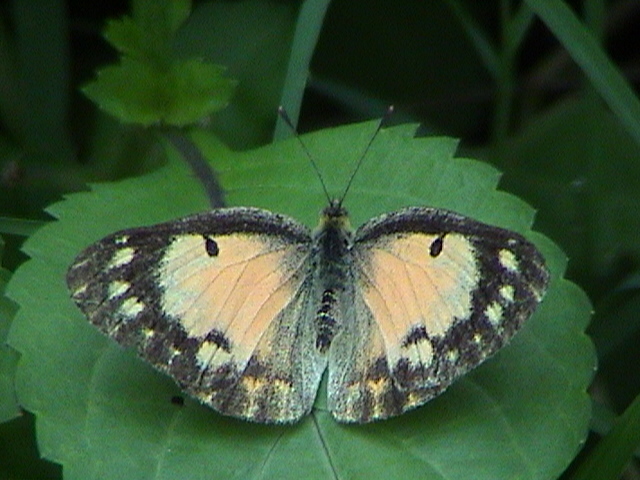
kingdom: Animalia
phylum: Arthropoda
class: Insecta
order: Lepidoptera
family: Pieridae
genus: Colotis
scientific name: Colotis amata
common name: Small salmon arab
